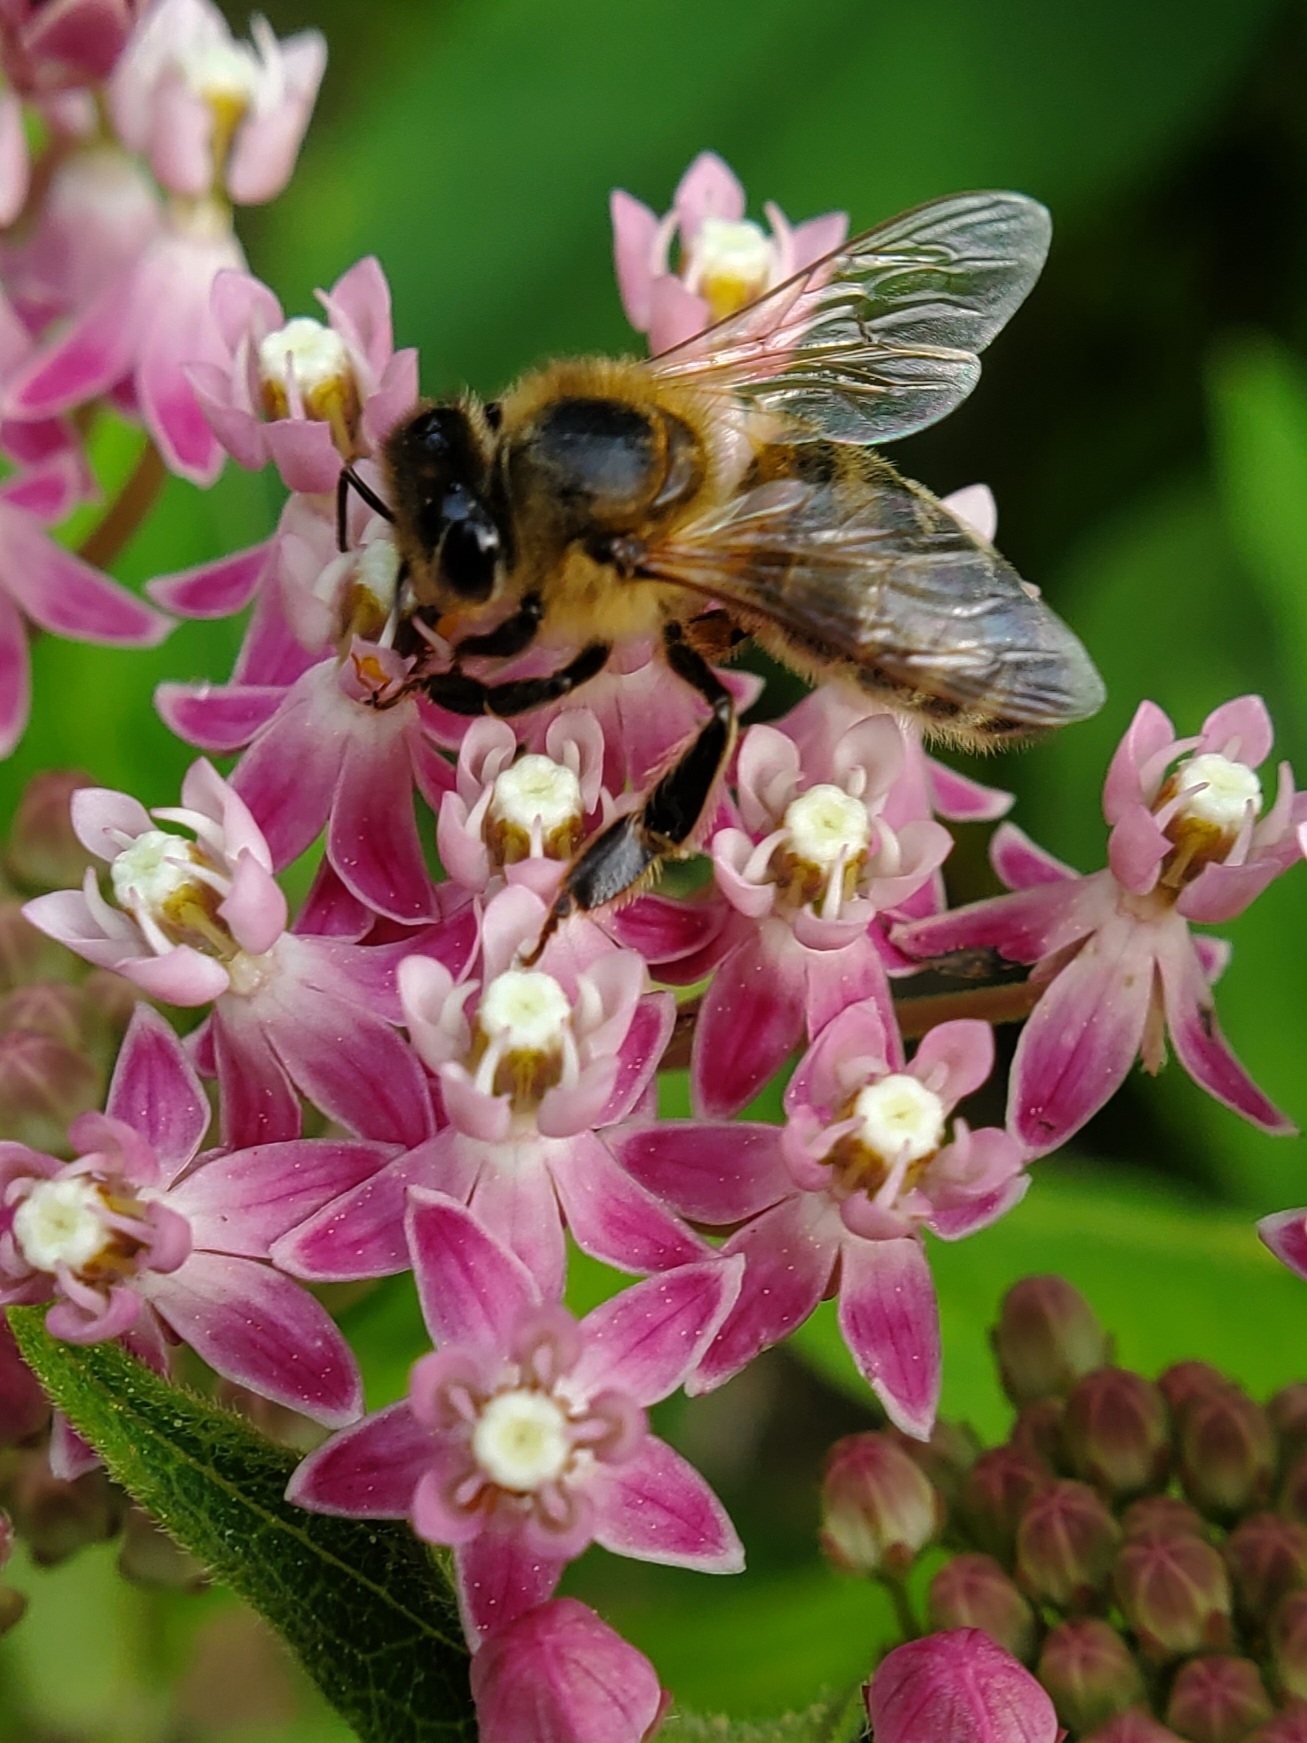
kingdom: Animalia
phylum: Arthropoda
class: Insecta
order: Hymenoptera
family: Apidae
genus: Apis
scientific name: Apis mellifera
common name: Honey bee
